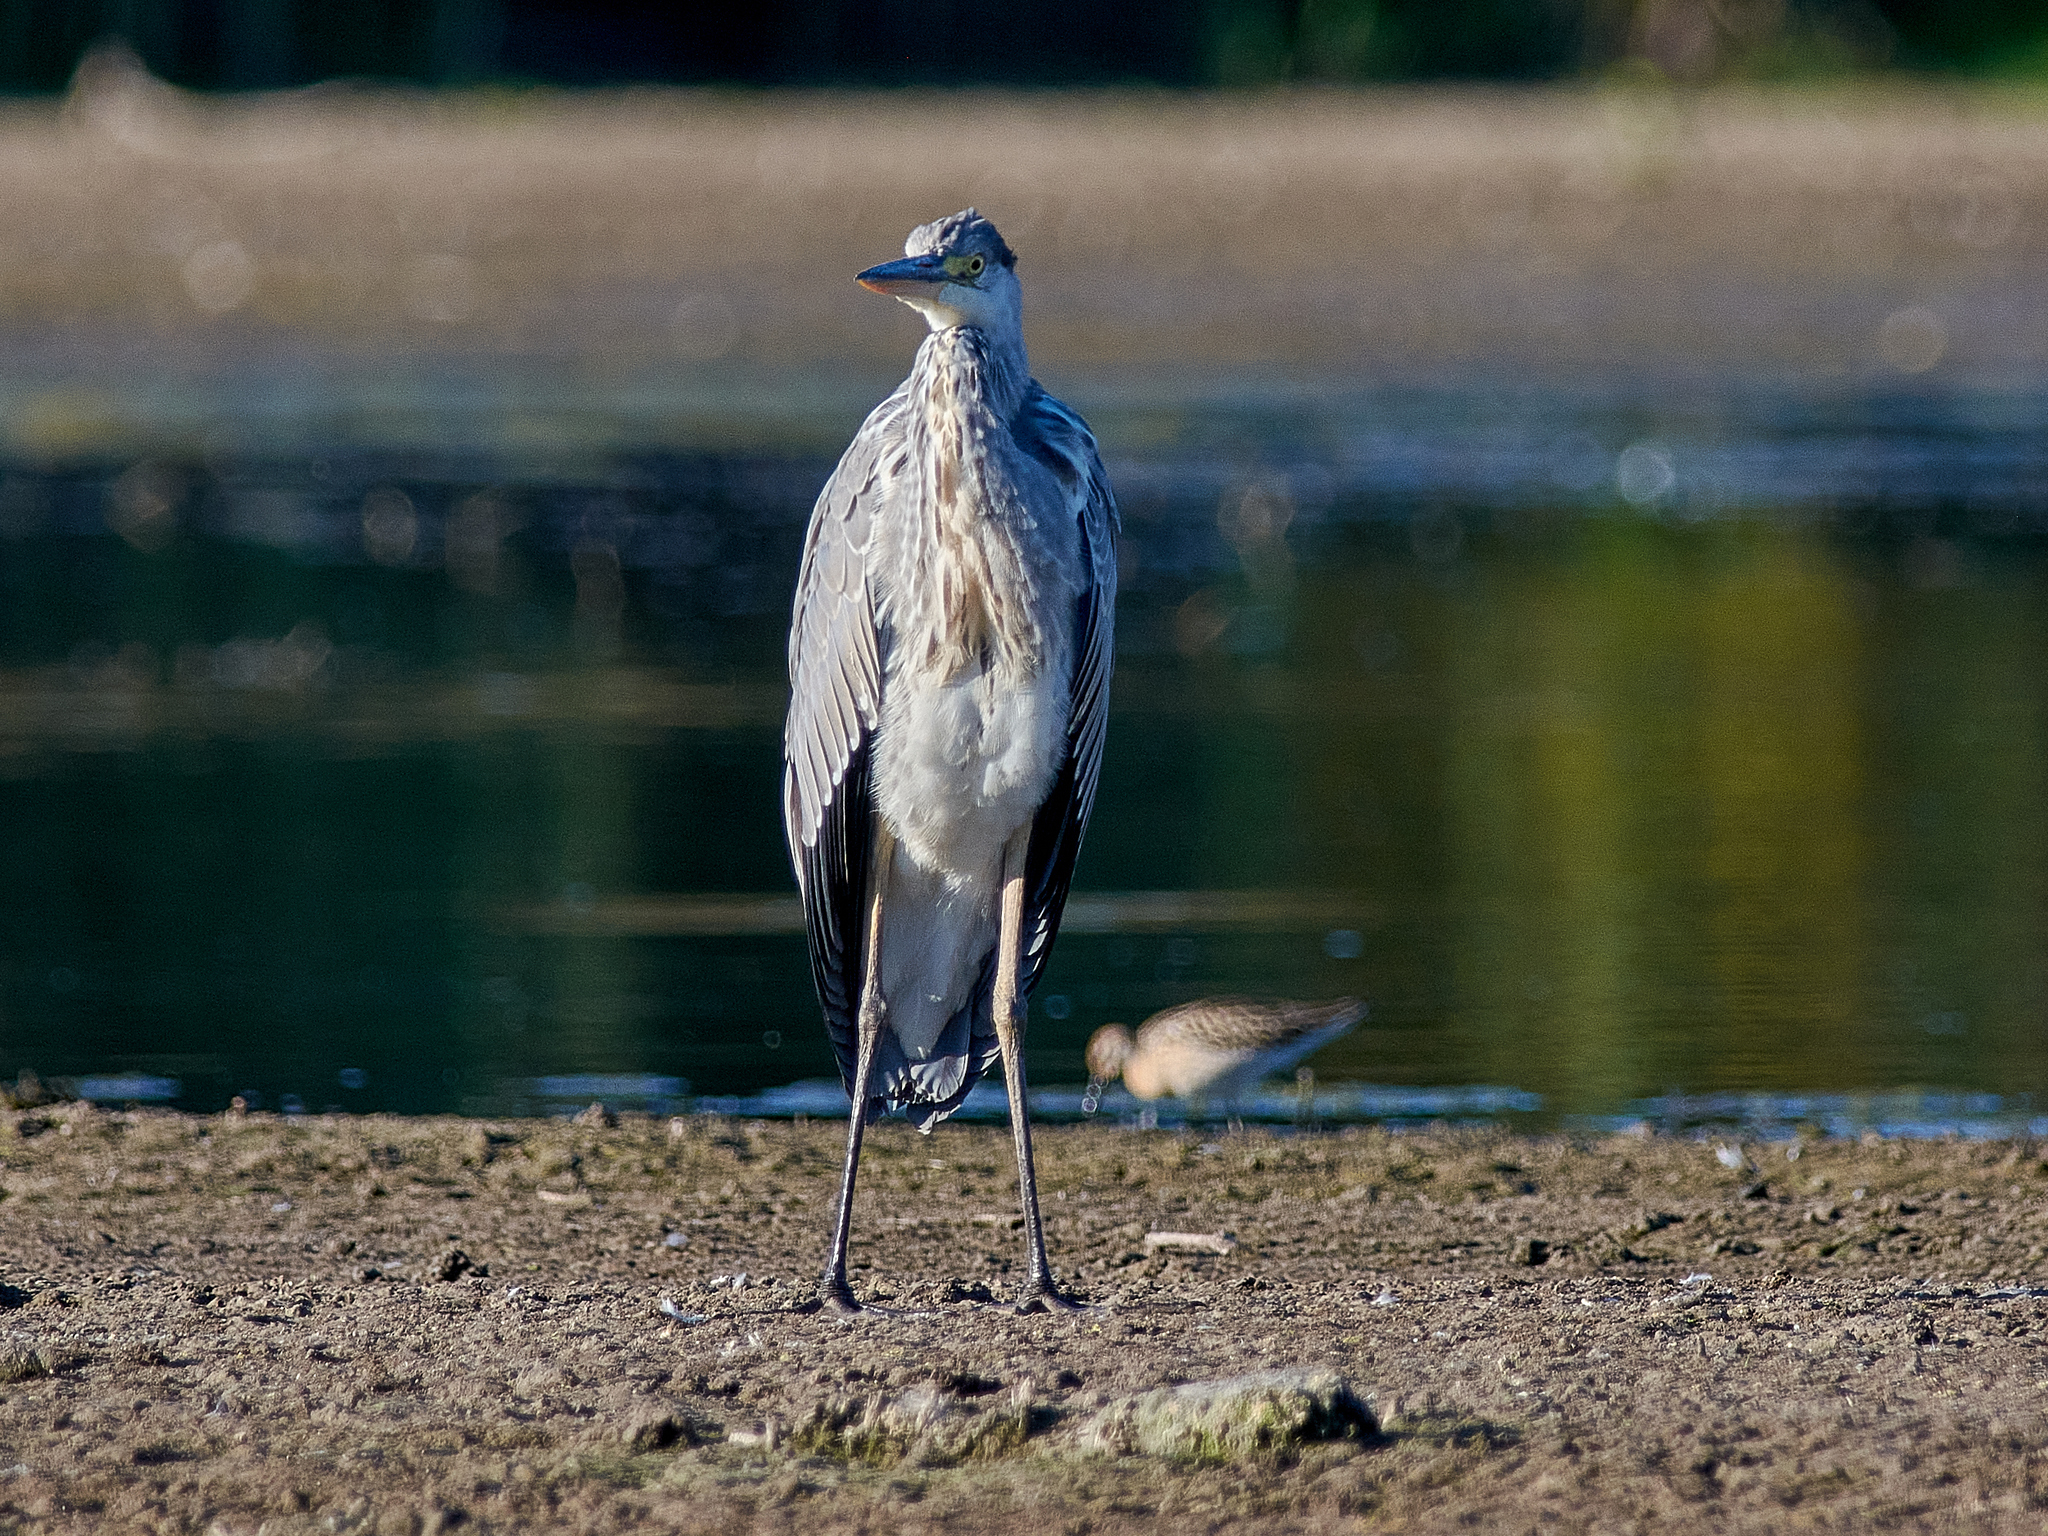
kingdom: Animalia
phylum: Chordata
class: Aves
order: Pelecaniformes
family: Ardeidae
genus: Ardea
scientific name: Ardea cinerea
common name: Grey heron
